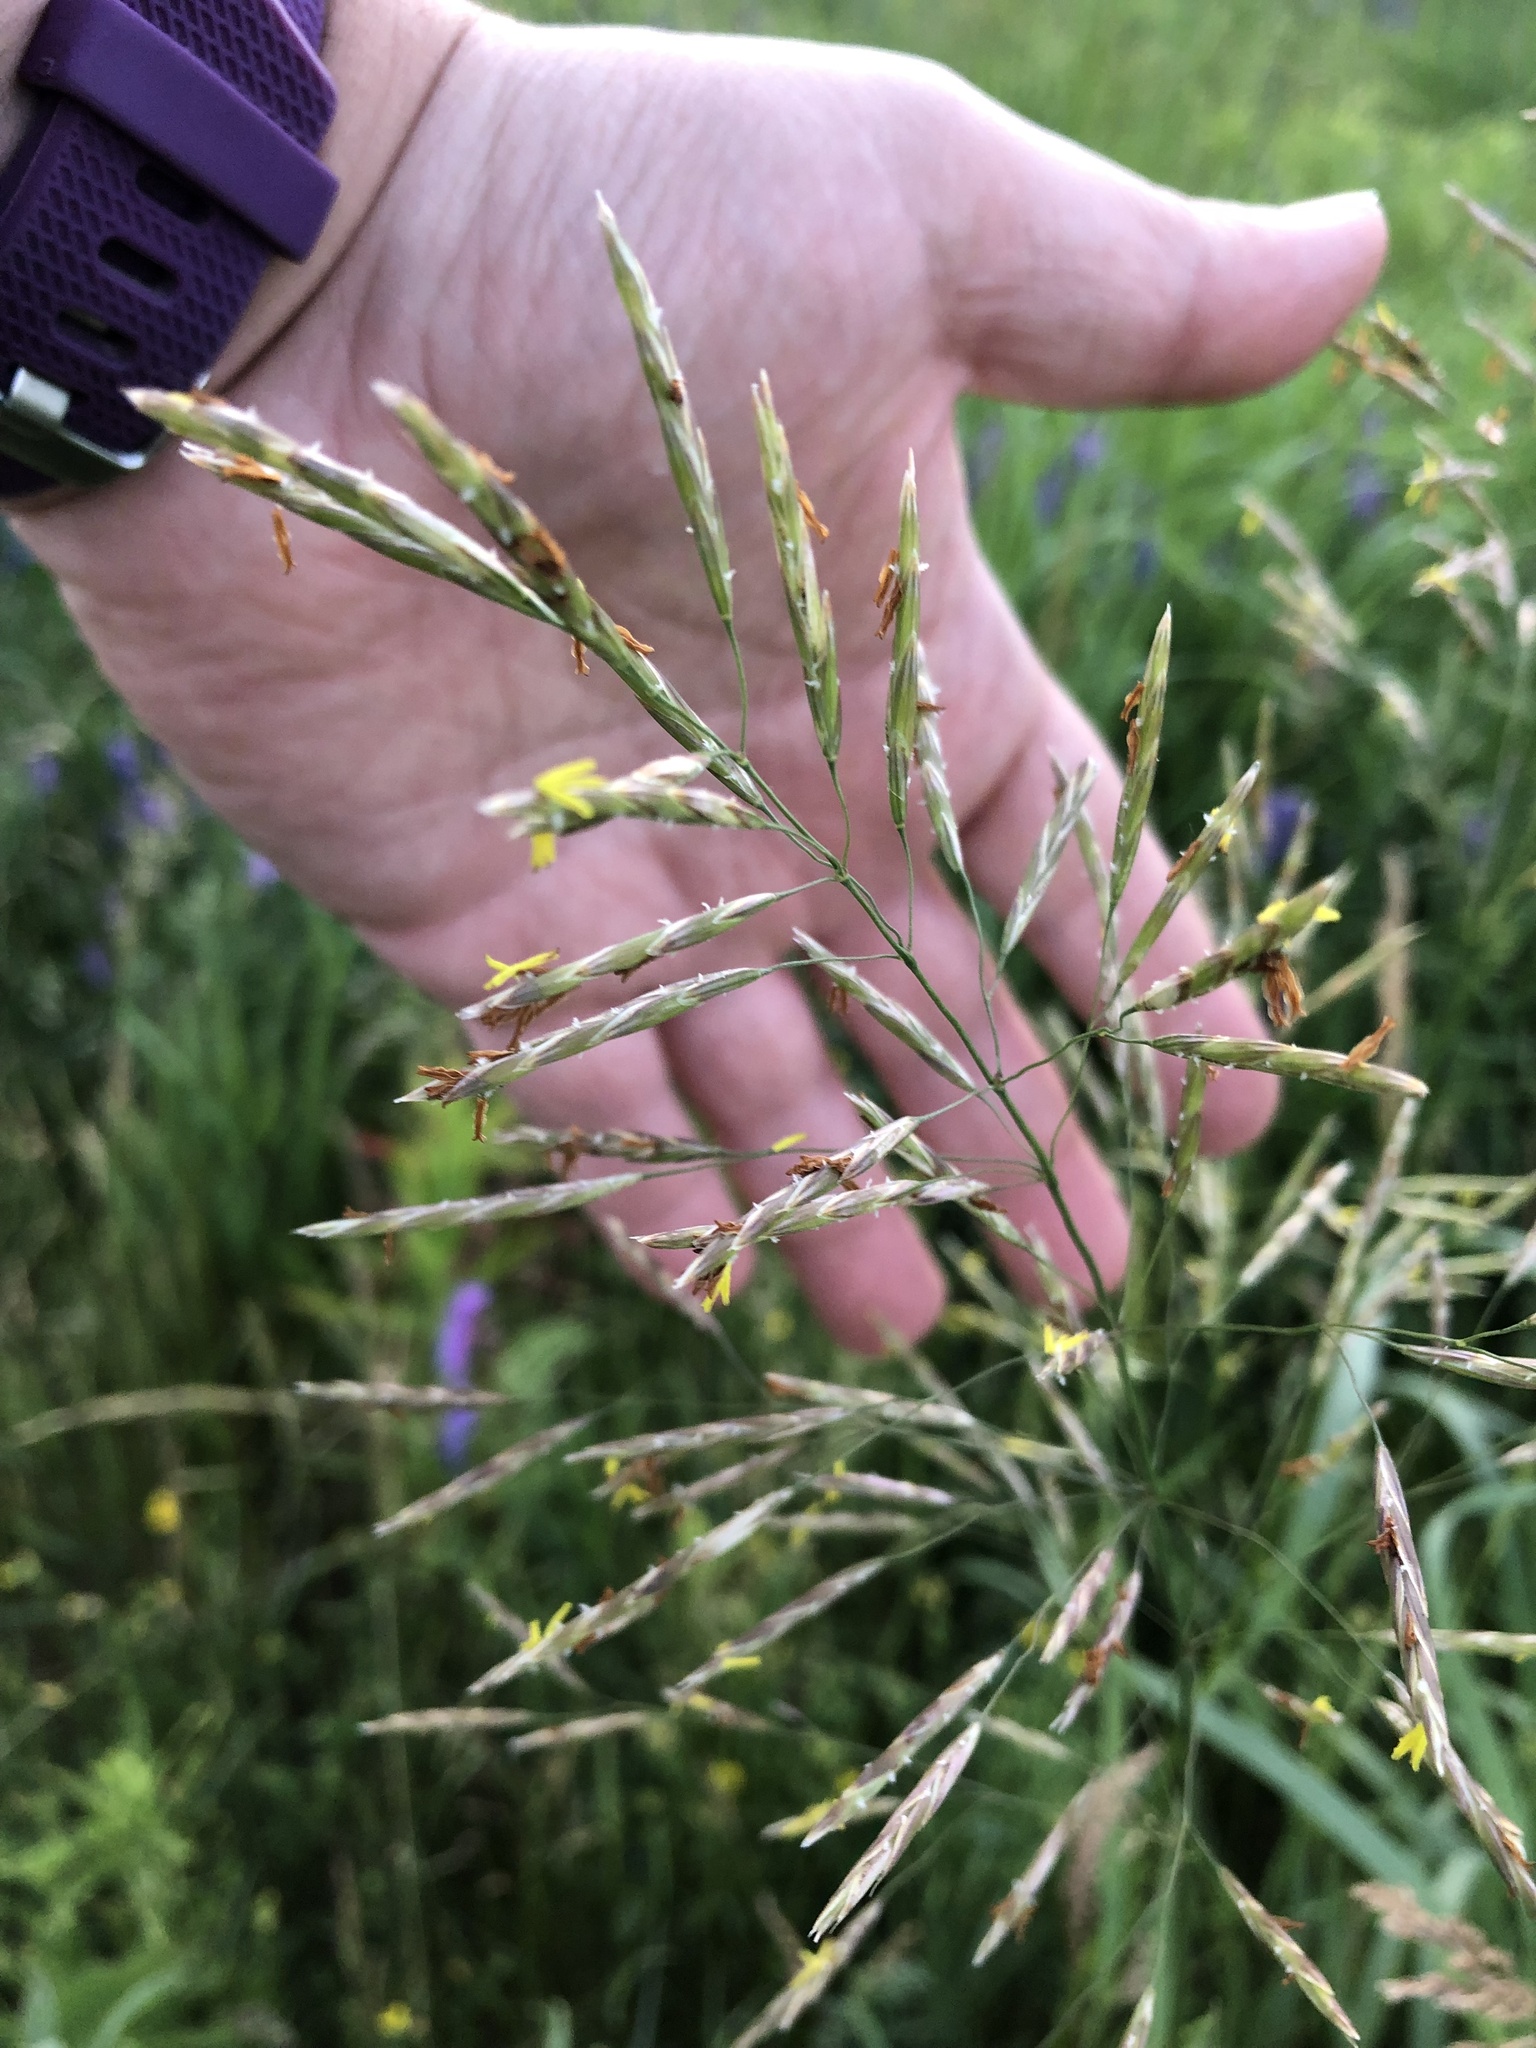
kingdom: Plantae
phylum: Tracheophyta
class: Liliopsida
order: Poales
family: Poaceae
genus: Bromus
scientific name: Bromus inermis
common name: Smooth brome
